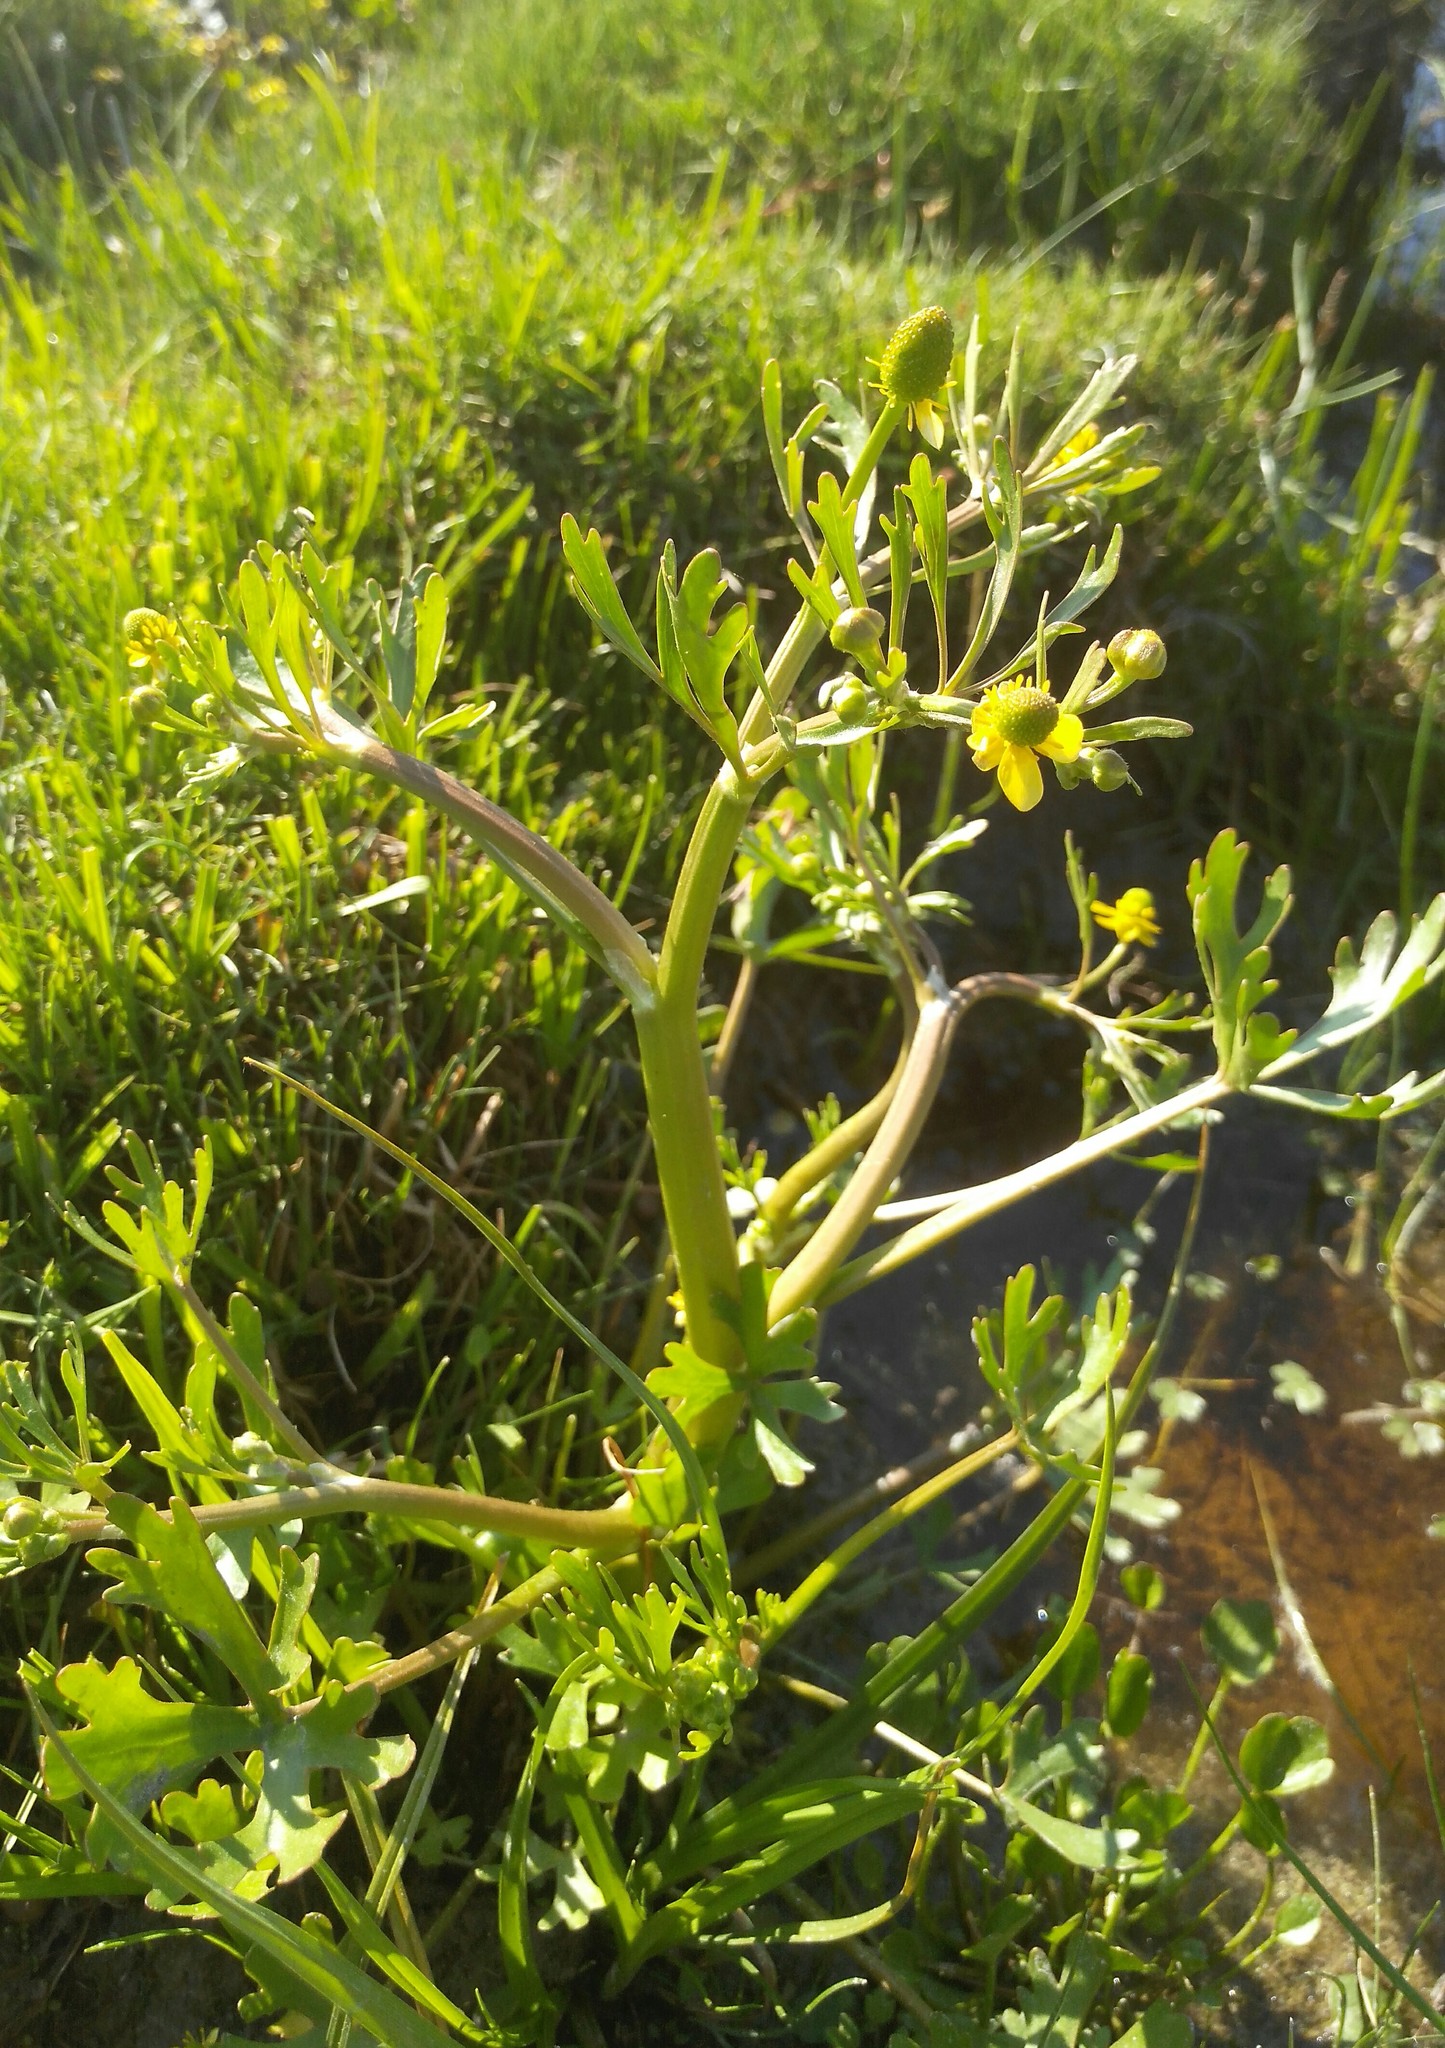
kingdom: Plantae
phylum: Tracheophyta
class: Magnoliopsida
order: Ranunculales
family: Ranunculaceae
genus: Ranunculus
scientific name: Ranunculus sceleratus
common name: Celery-leaved buttercup
